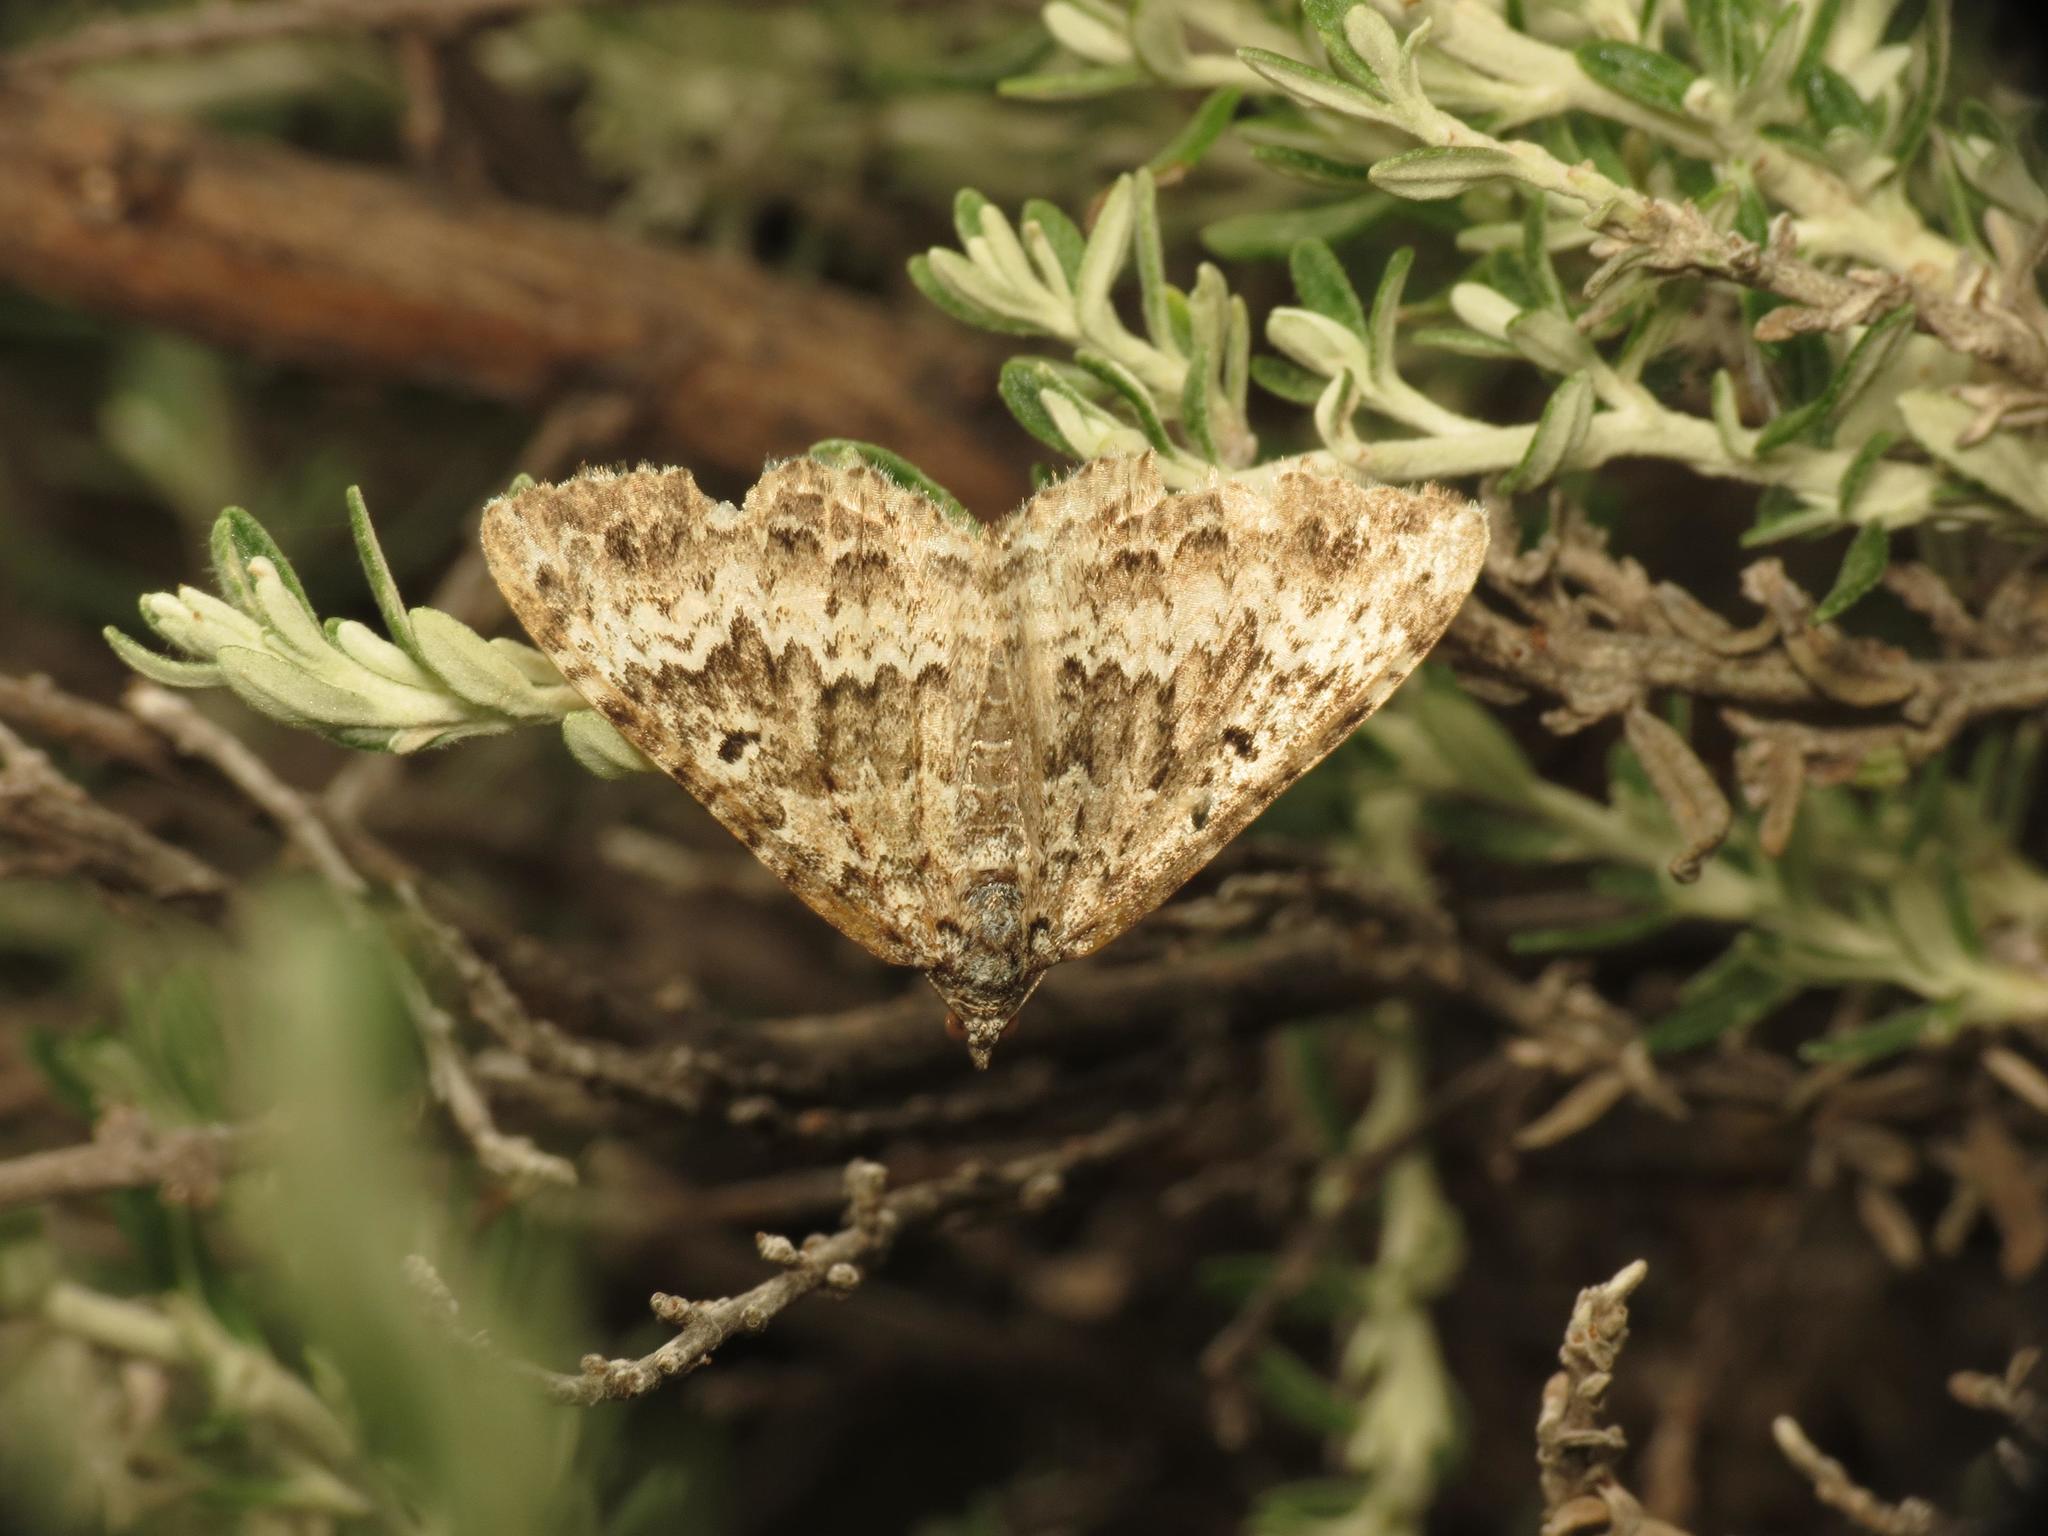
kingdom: Animalia
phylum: Arthropoda
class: Insecta
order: Lepidoptera
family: Geometridae
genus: Chrysolarentia
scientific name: Chrysolarentia argocyma
